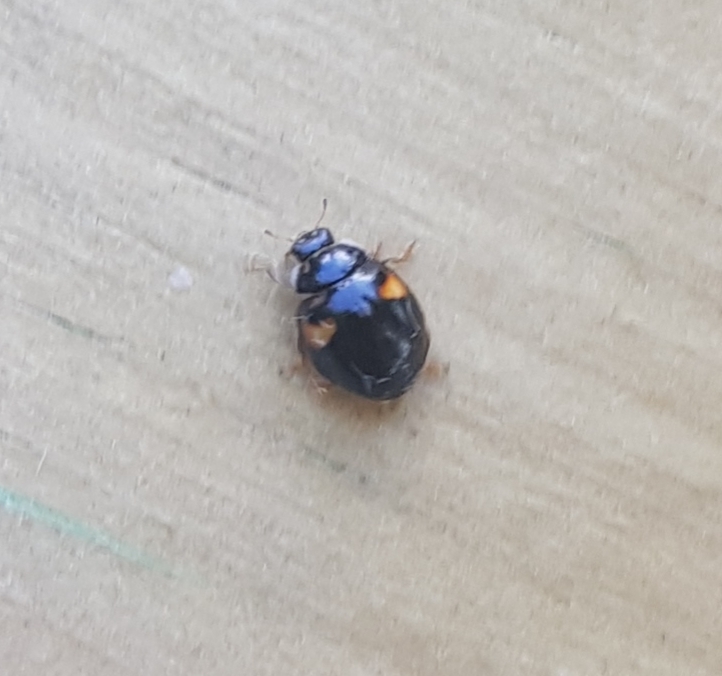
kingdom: Animalia
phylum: Arthropoda
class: Insecta
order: Coleoptera
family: Coccinellidae
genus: Adalia
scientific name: Adalia decempunctata
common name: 10-spot ladybird
